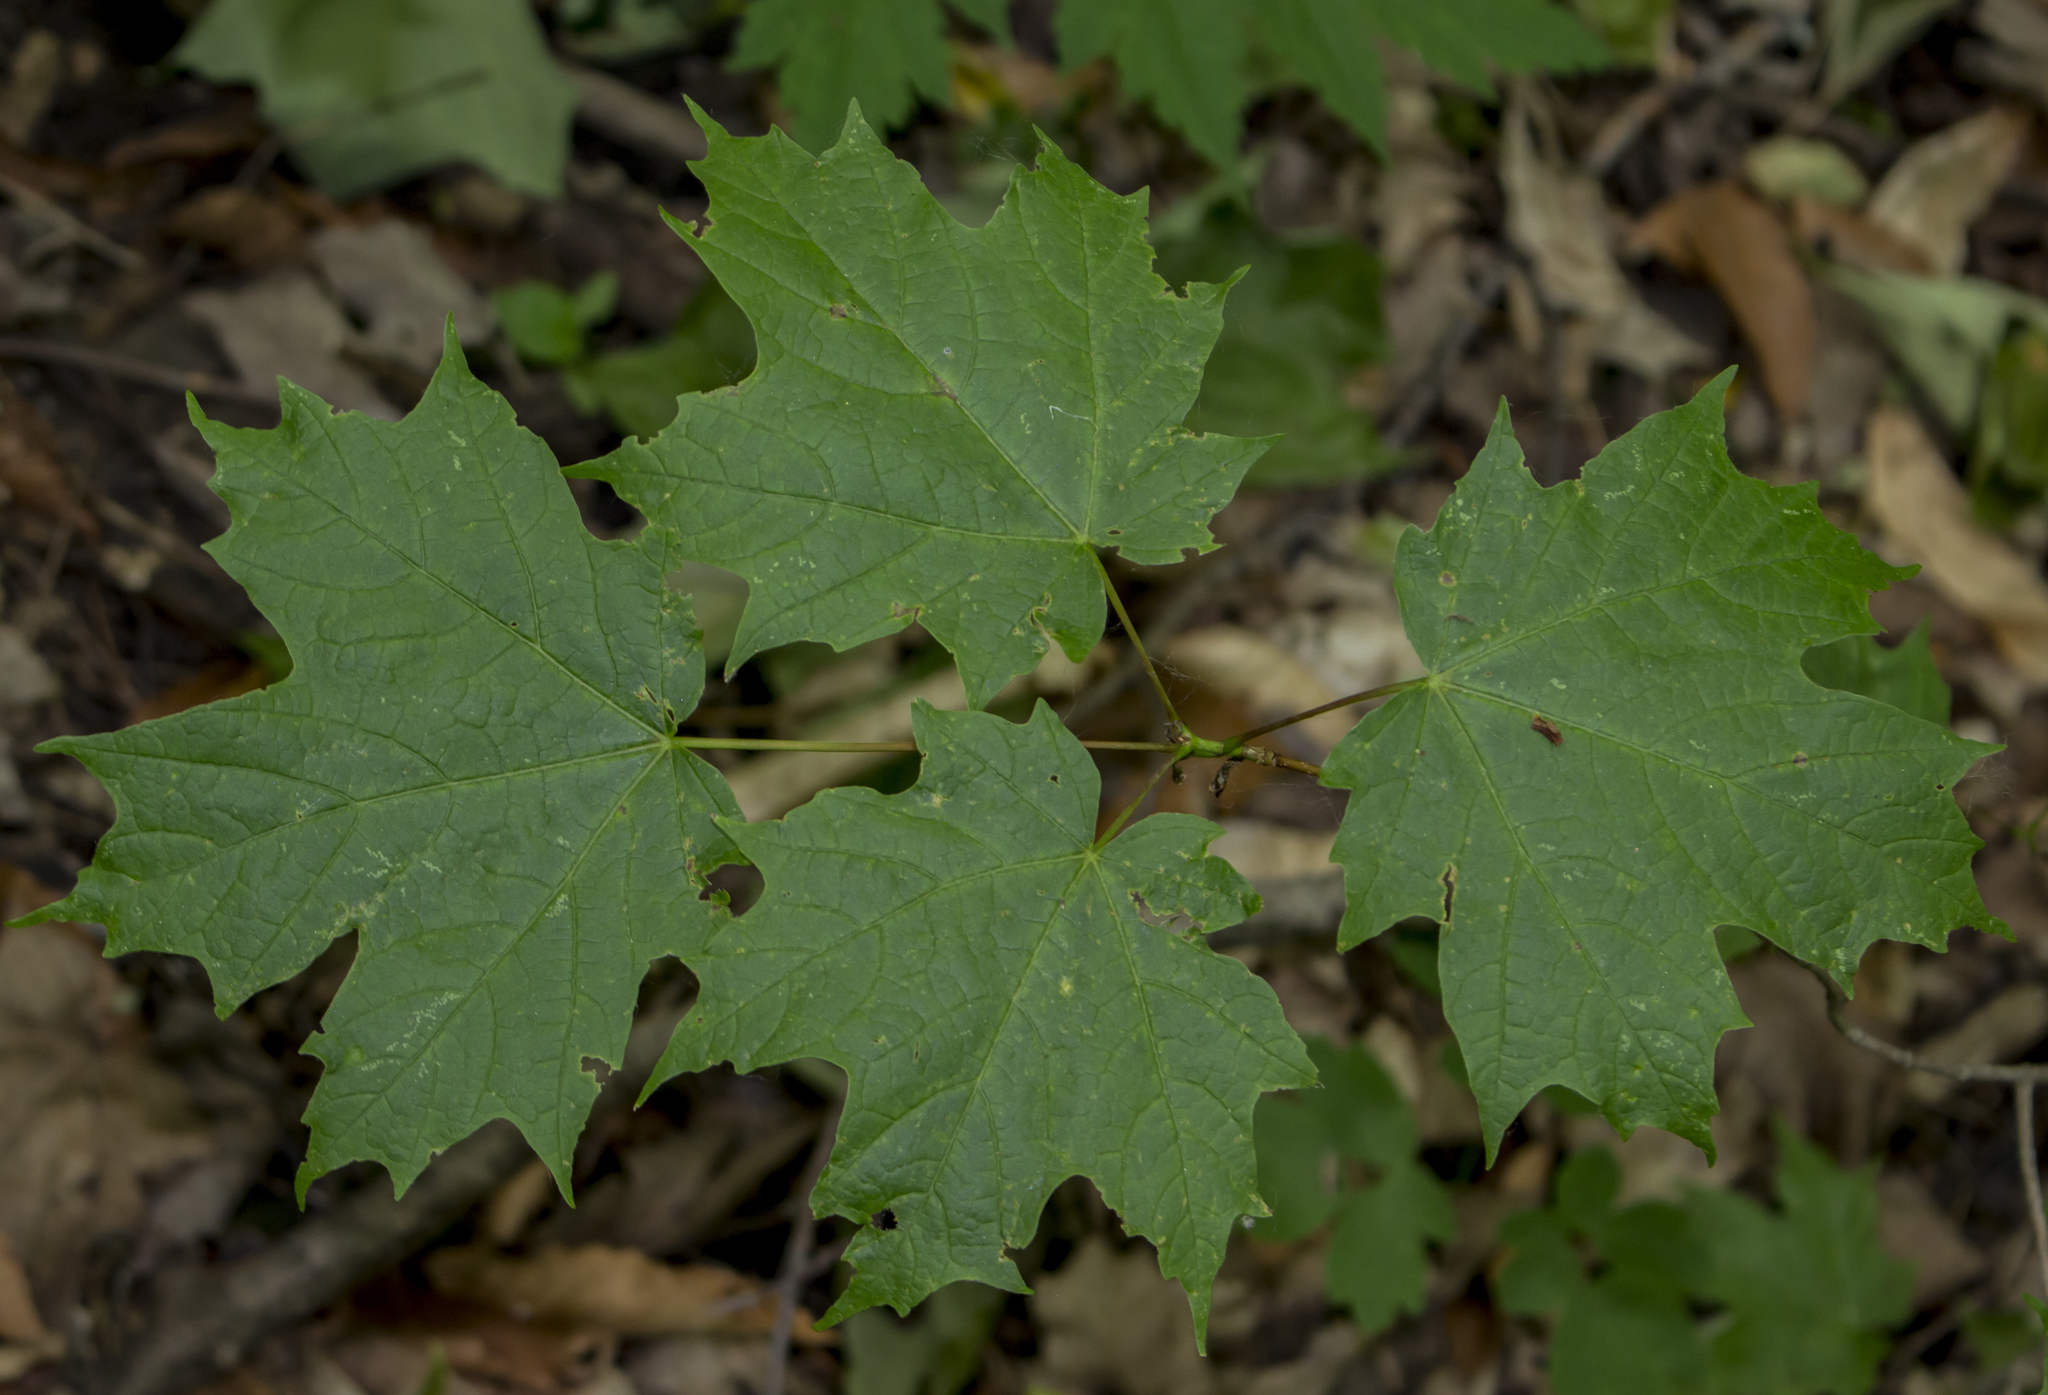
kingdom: Plantae
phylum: Tracheophyta
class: Magnoliopsida
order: Sapindales
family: Sapindaceae
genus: Acer
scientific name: Acer saccharum
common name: Sugar maple
